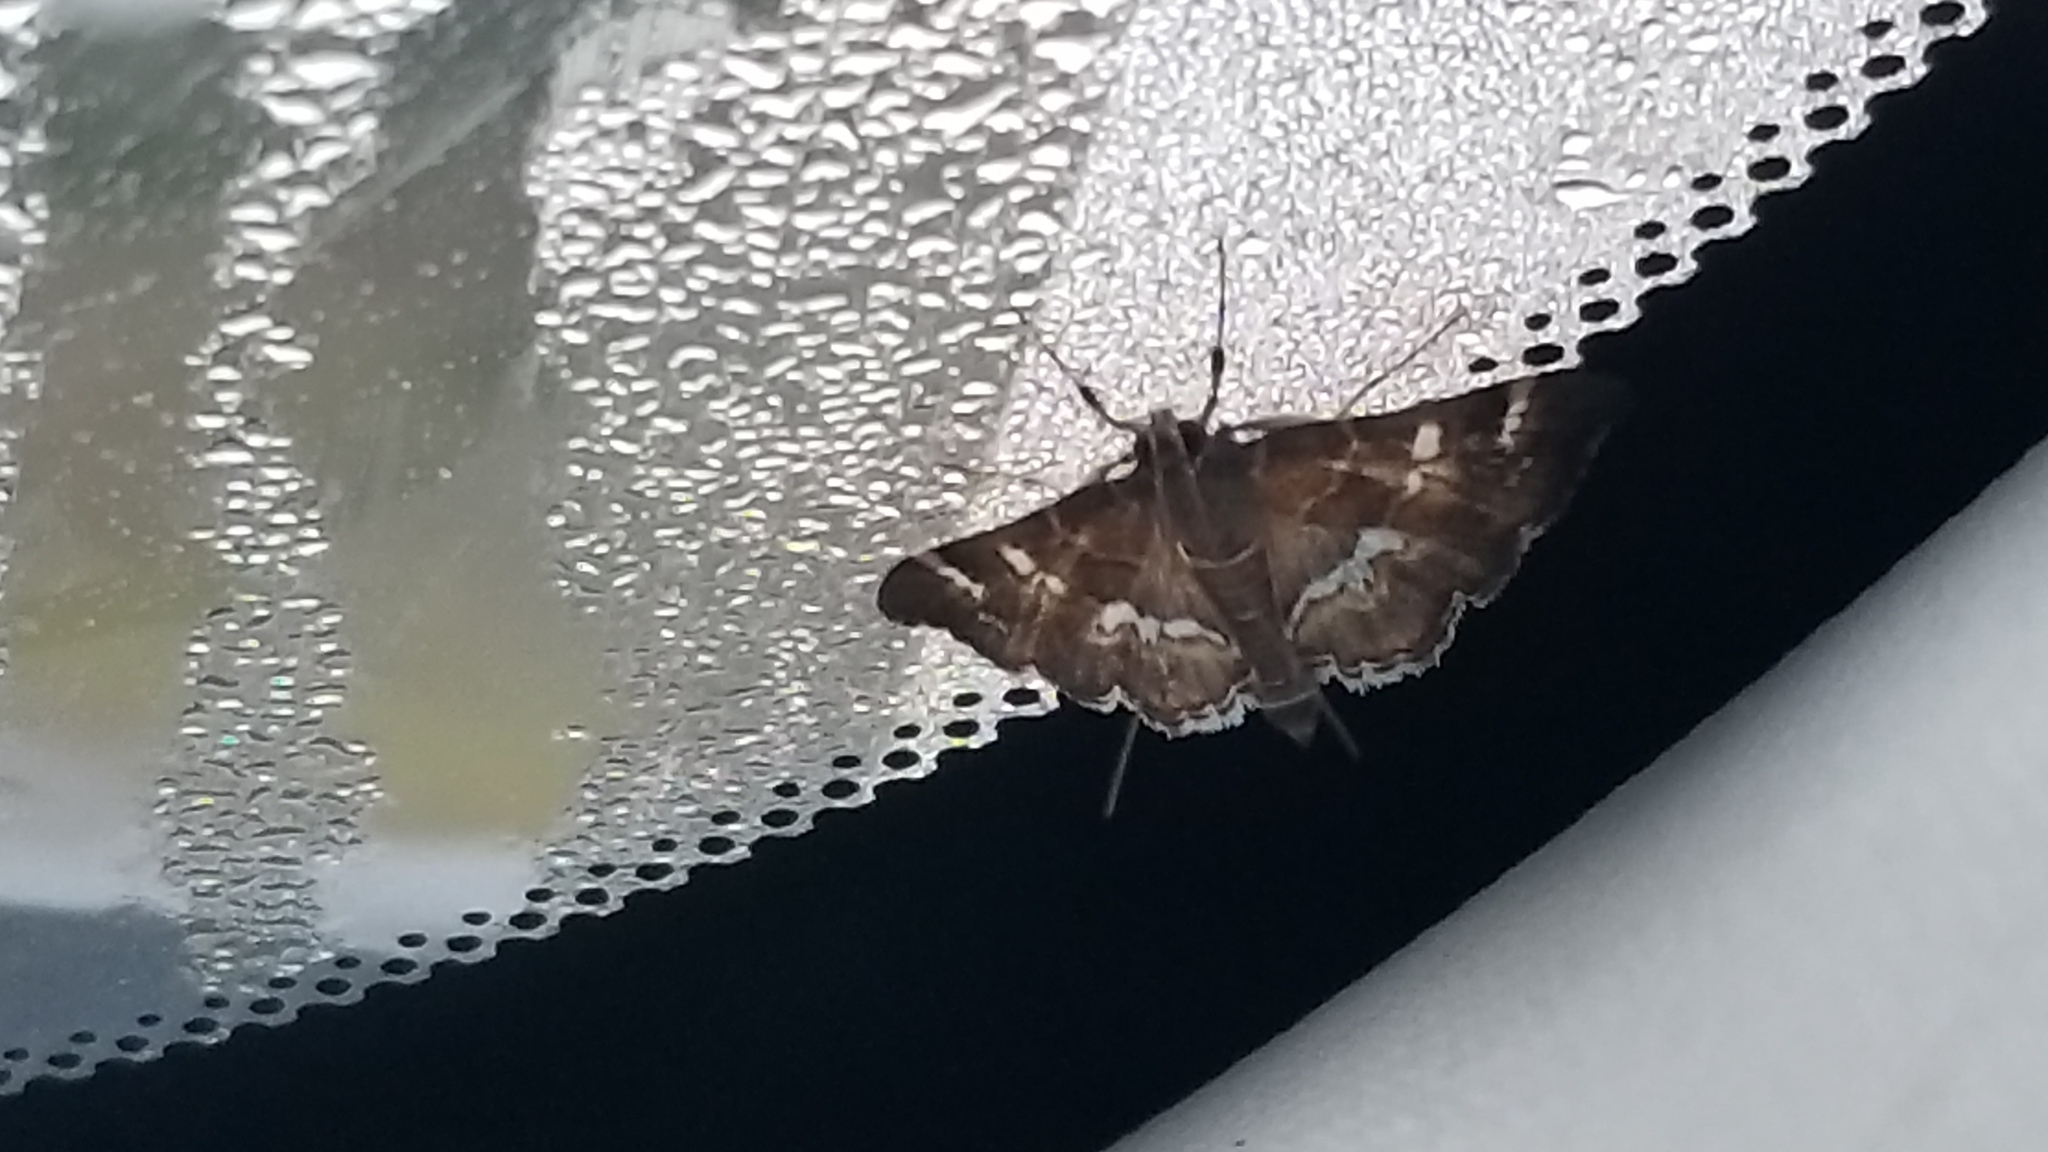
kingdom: Animalia
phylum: Arthropoda
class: Insecta
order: Lepidoptera
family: Crambidae
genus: Hymenia
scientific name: Hymenia perspectalis
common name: Spotted beet webworm
